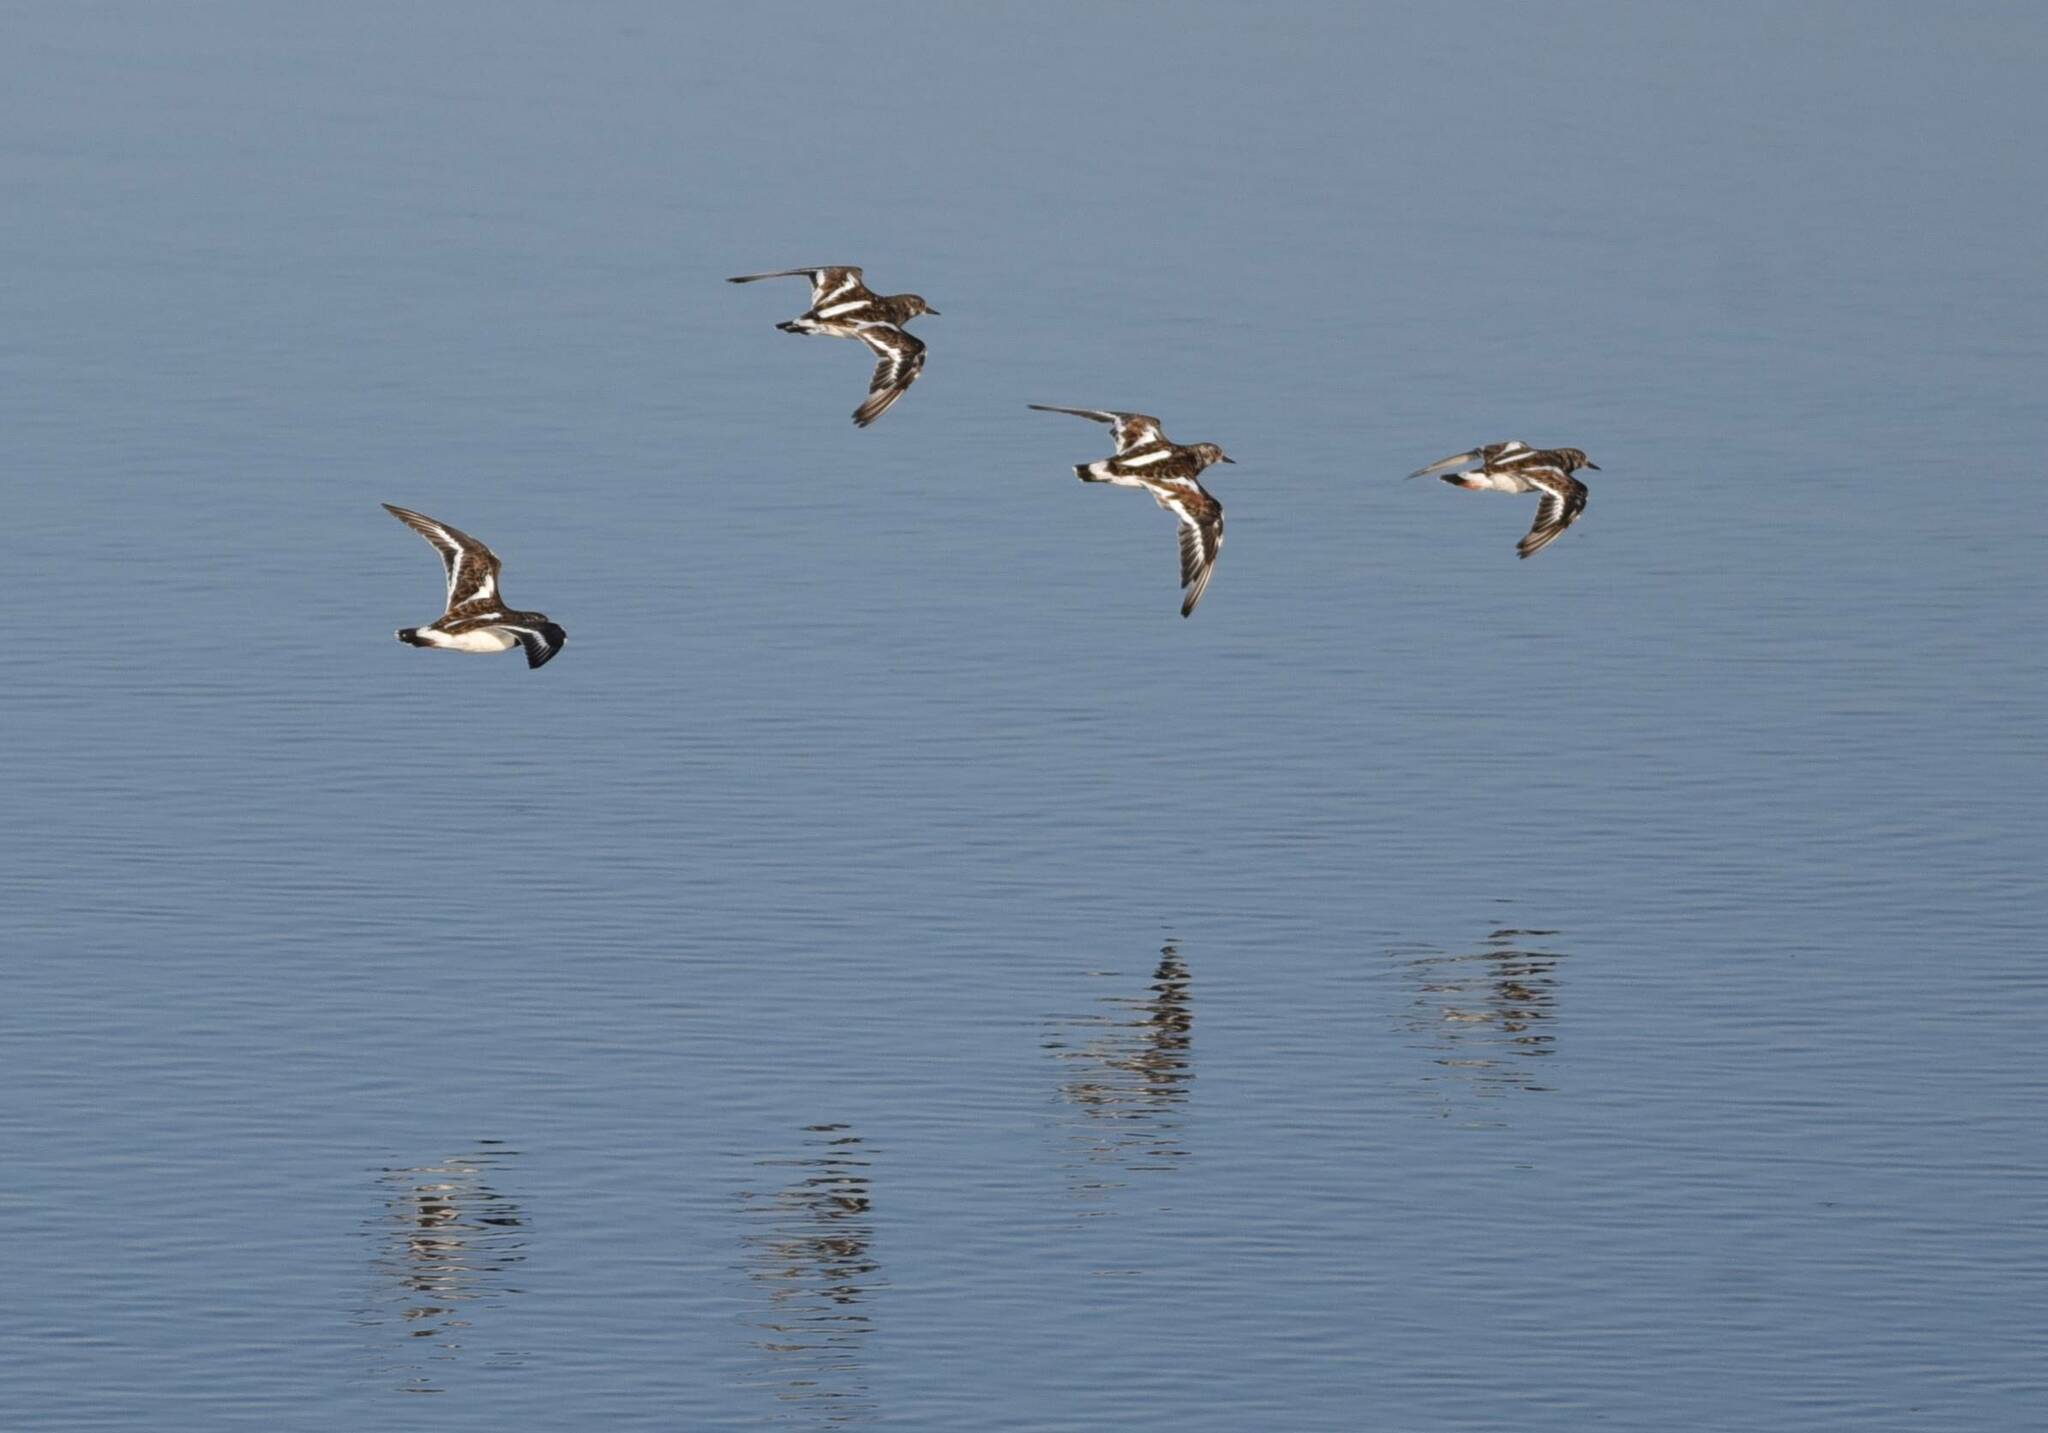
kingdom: Animalia
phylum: Chordata
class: Aves
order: Charadriiformes
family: Scolopacidae
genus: Arenaria
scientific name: Arenaria interpres
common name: Ruddy turnstone
